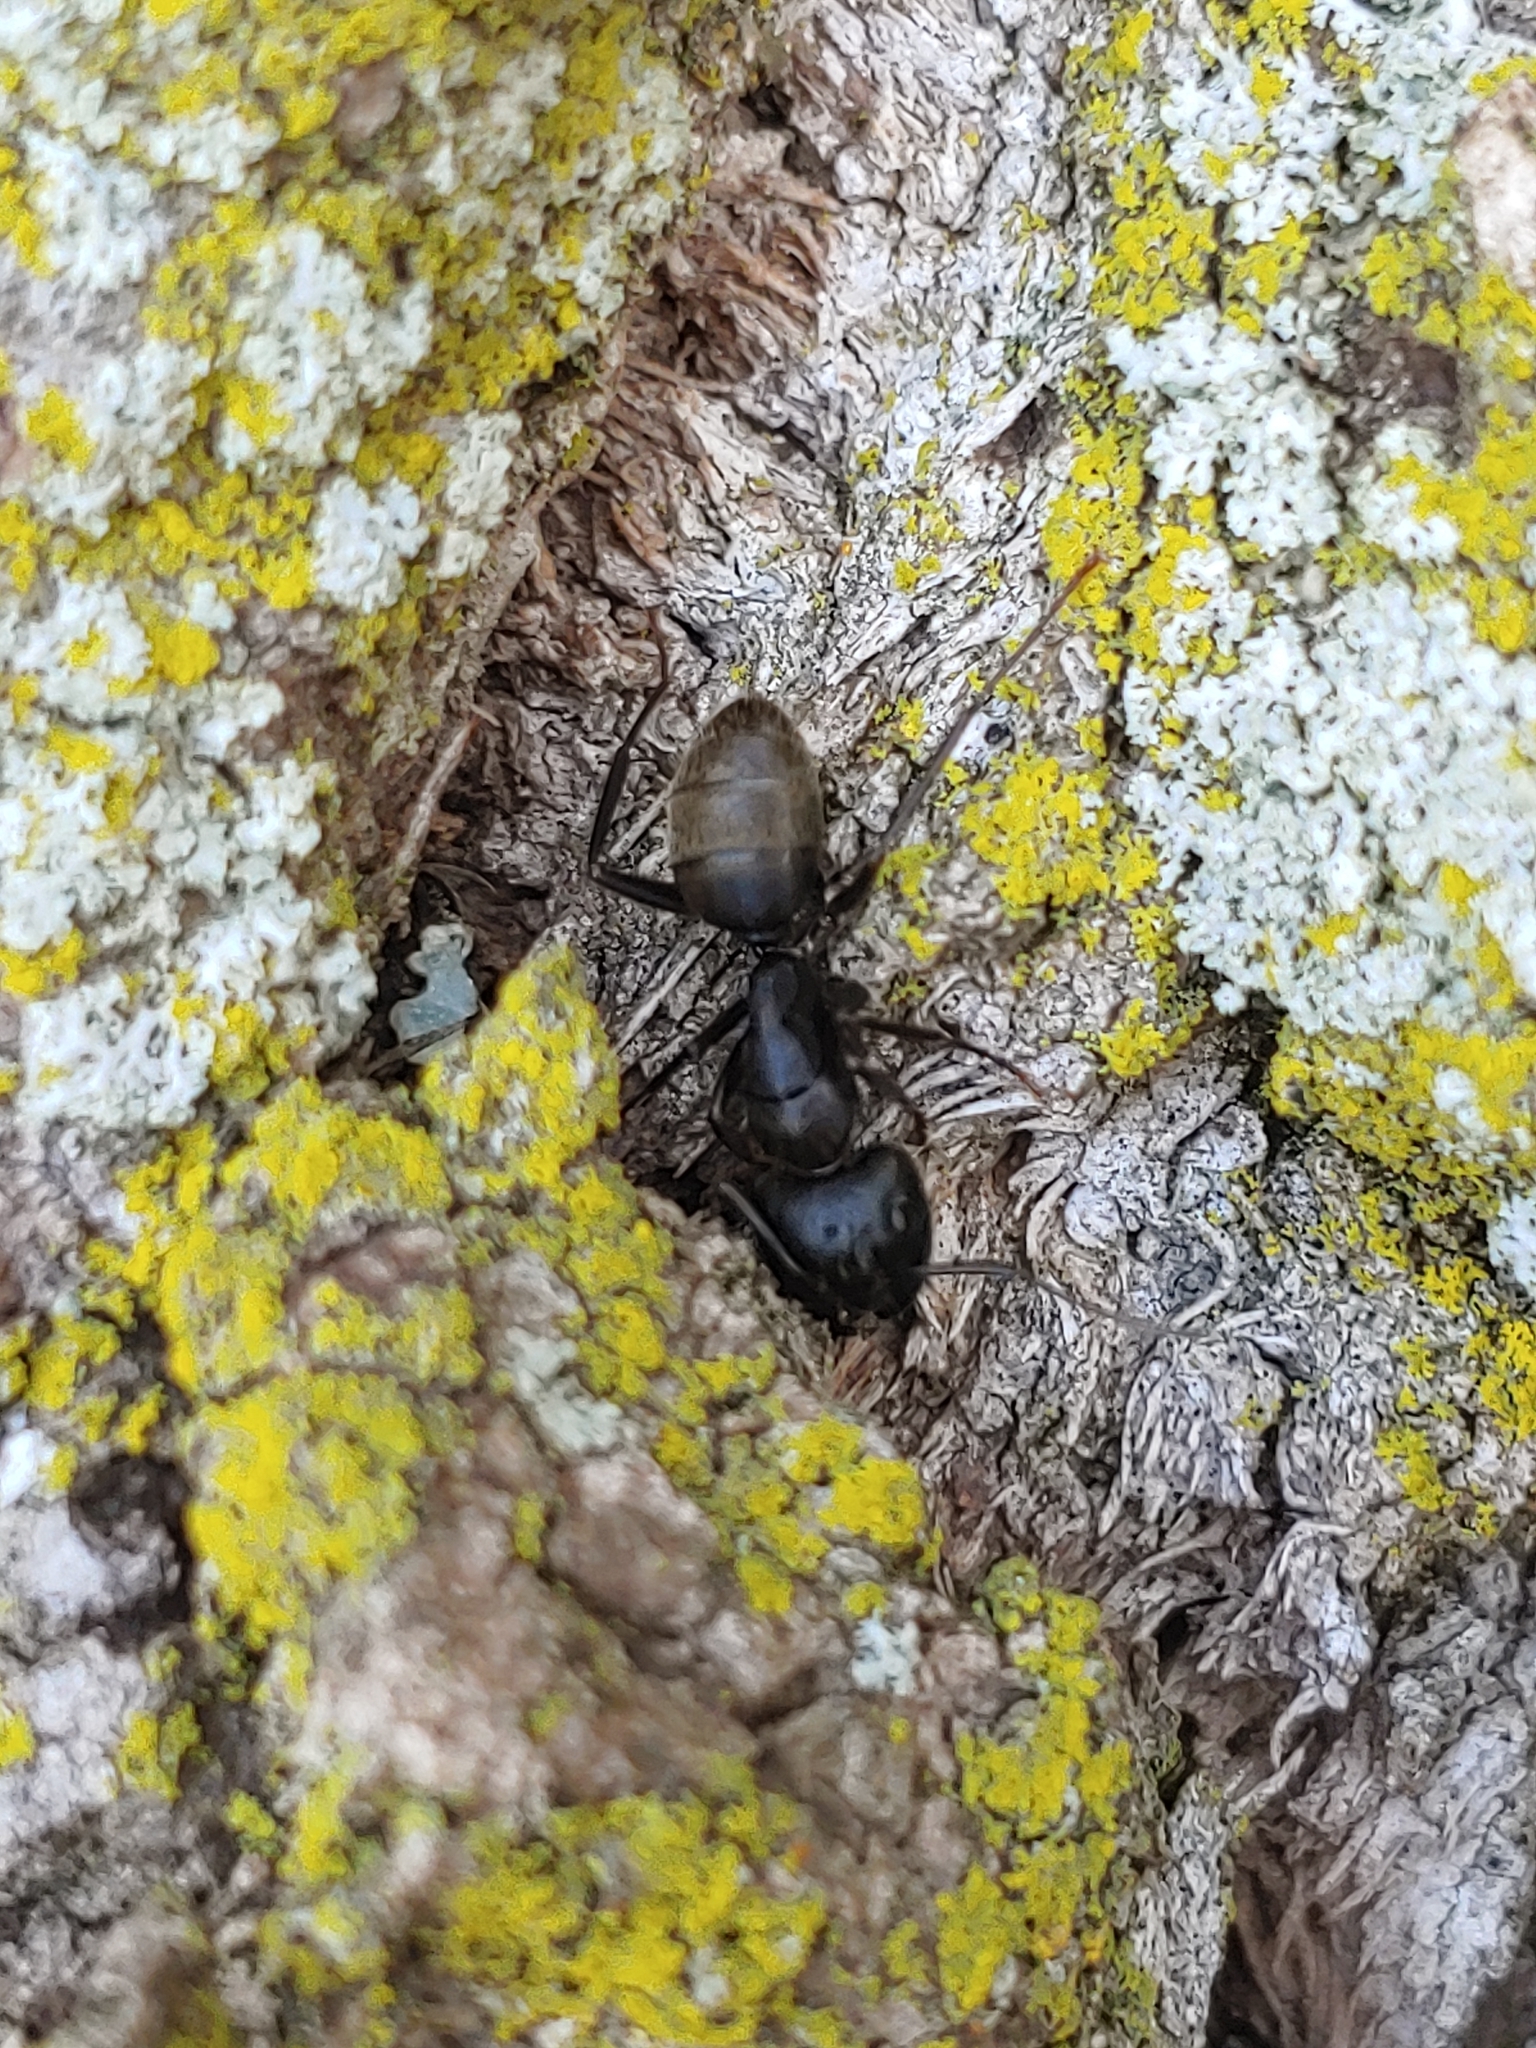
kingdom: Animalia
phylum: Arthropoda
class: Insecta
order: Hymenoptera
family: Formicidae
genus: Camponotus
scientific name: Camponotus pennsylvanicus
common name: Black carpenter ant
